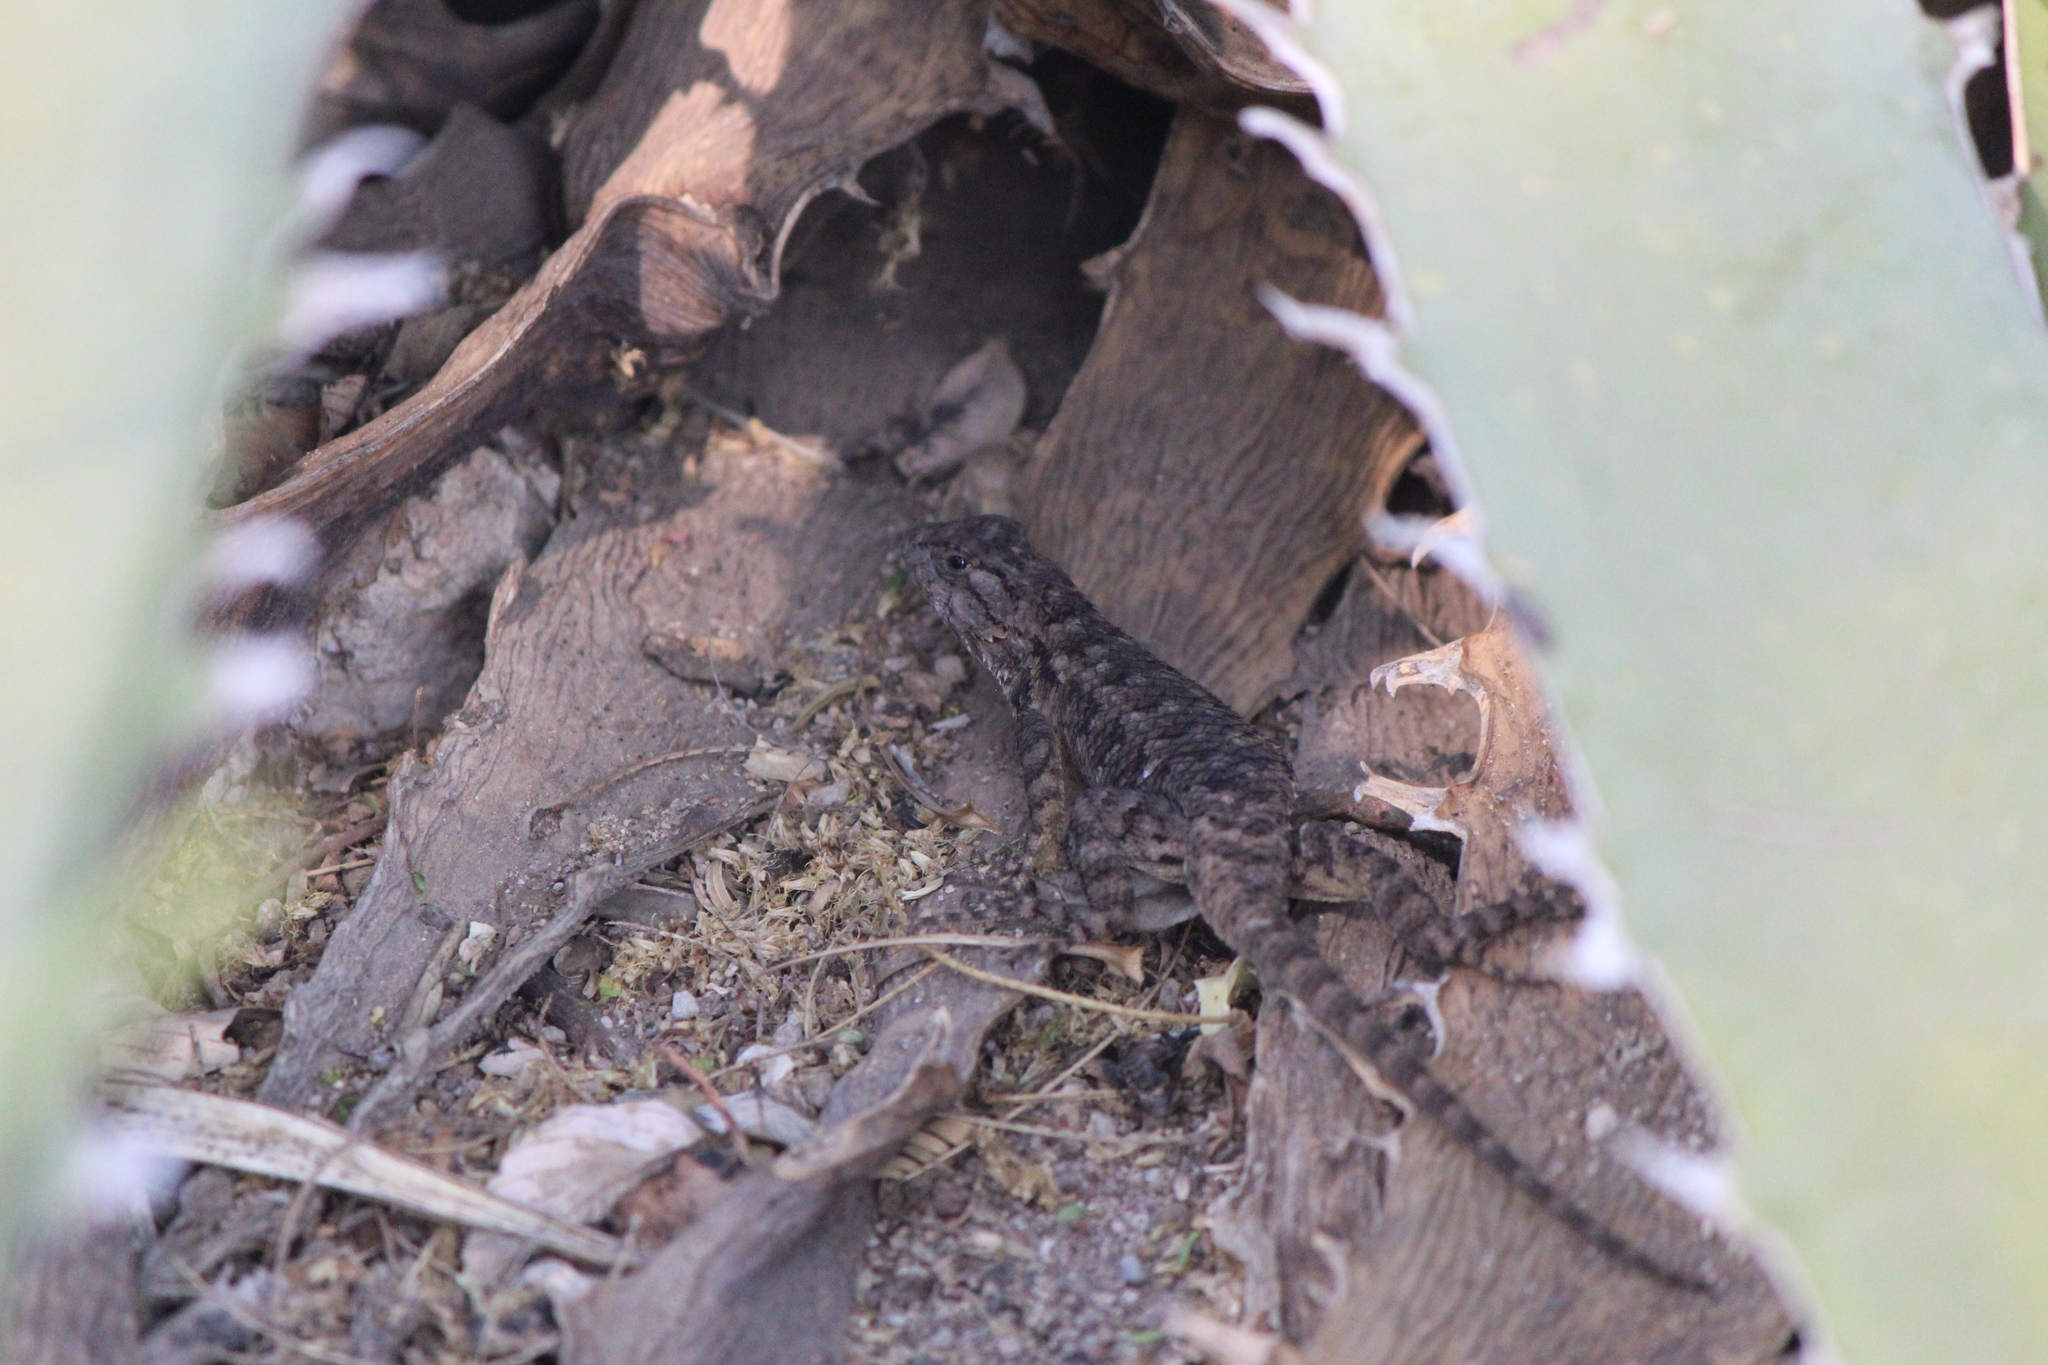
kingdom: Animalia
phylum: Chordata
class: Squamata
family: Phrynosomatidae
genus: Sceloporus
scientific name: Sceloporus spinosus
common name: Blue-spotted spiny lizard [caeruleopunctatus]
